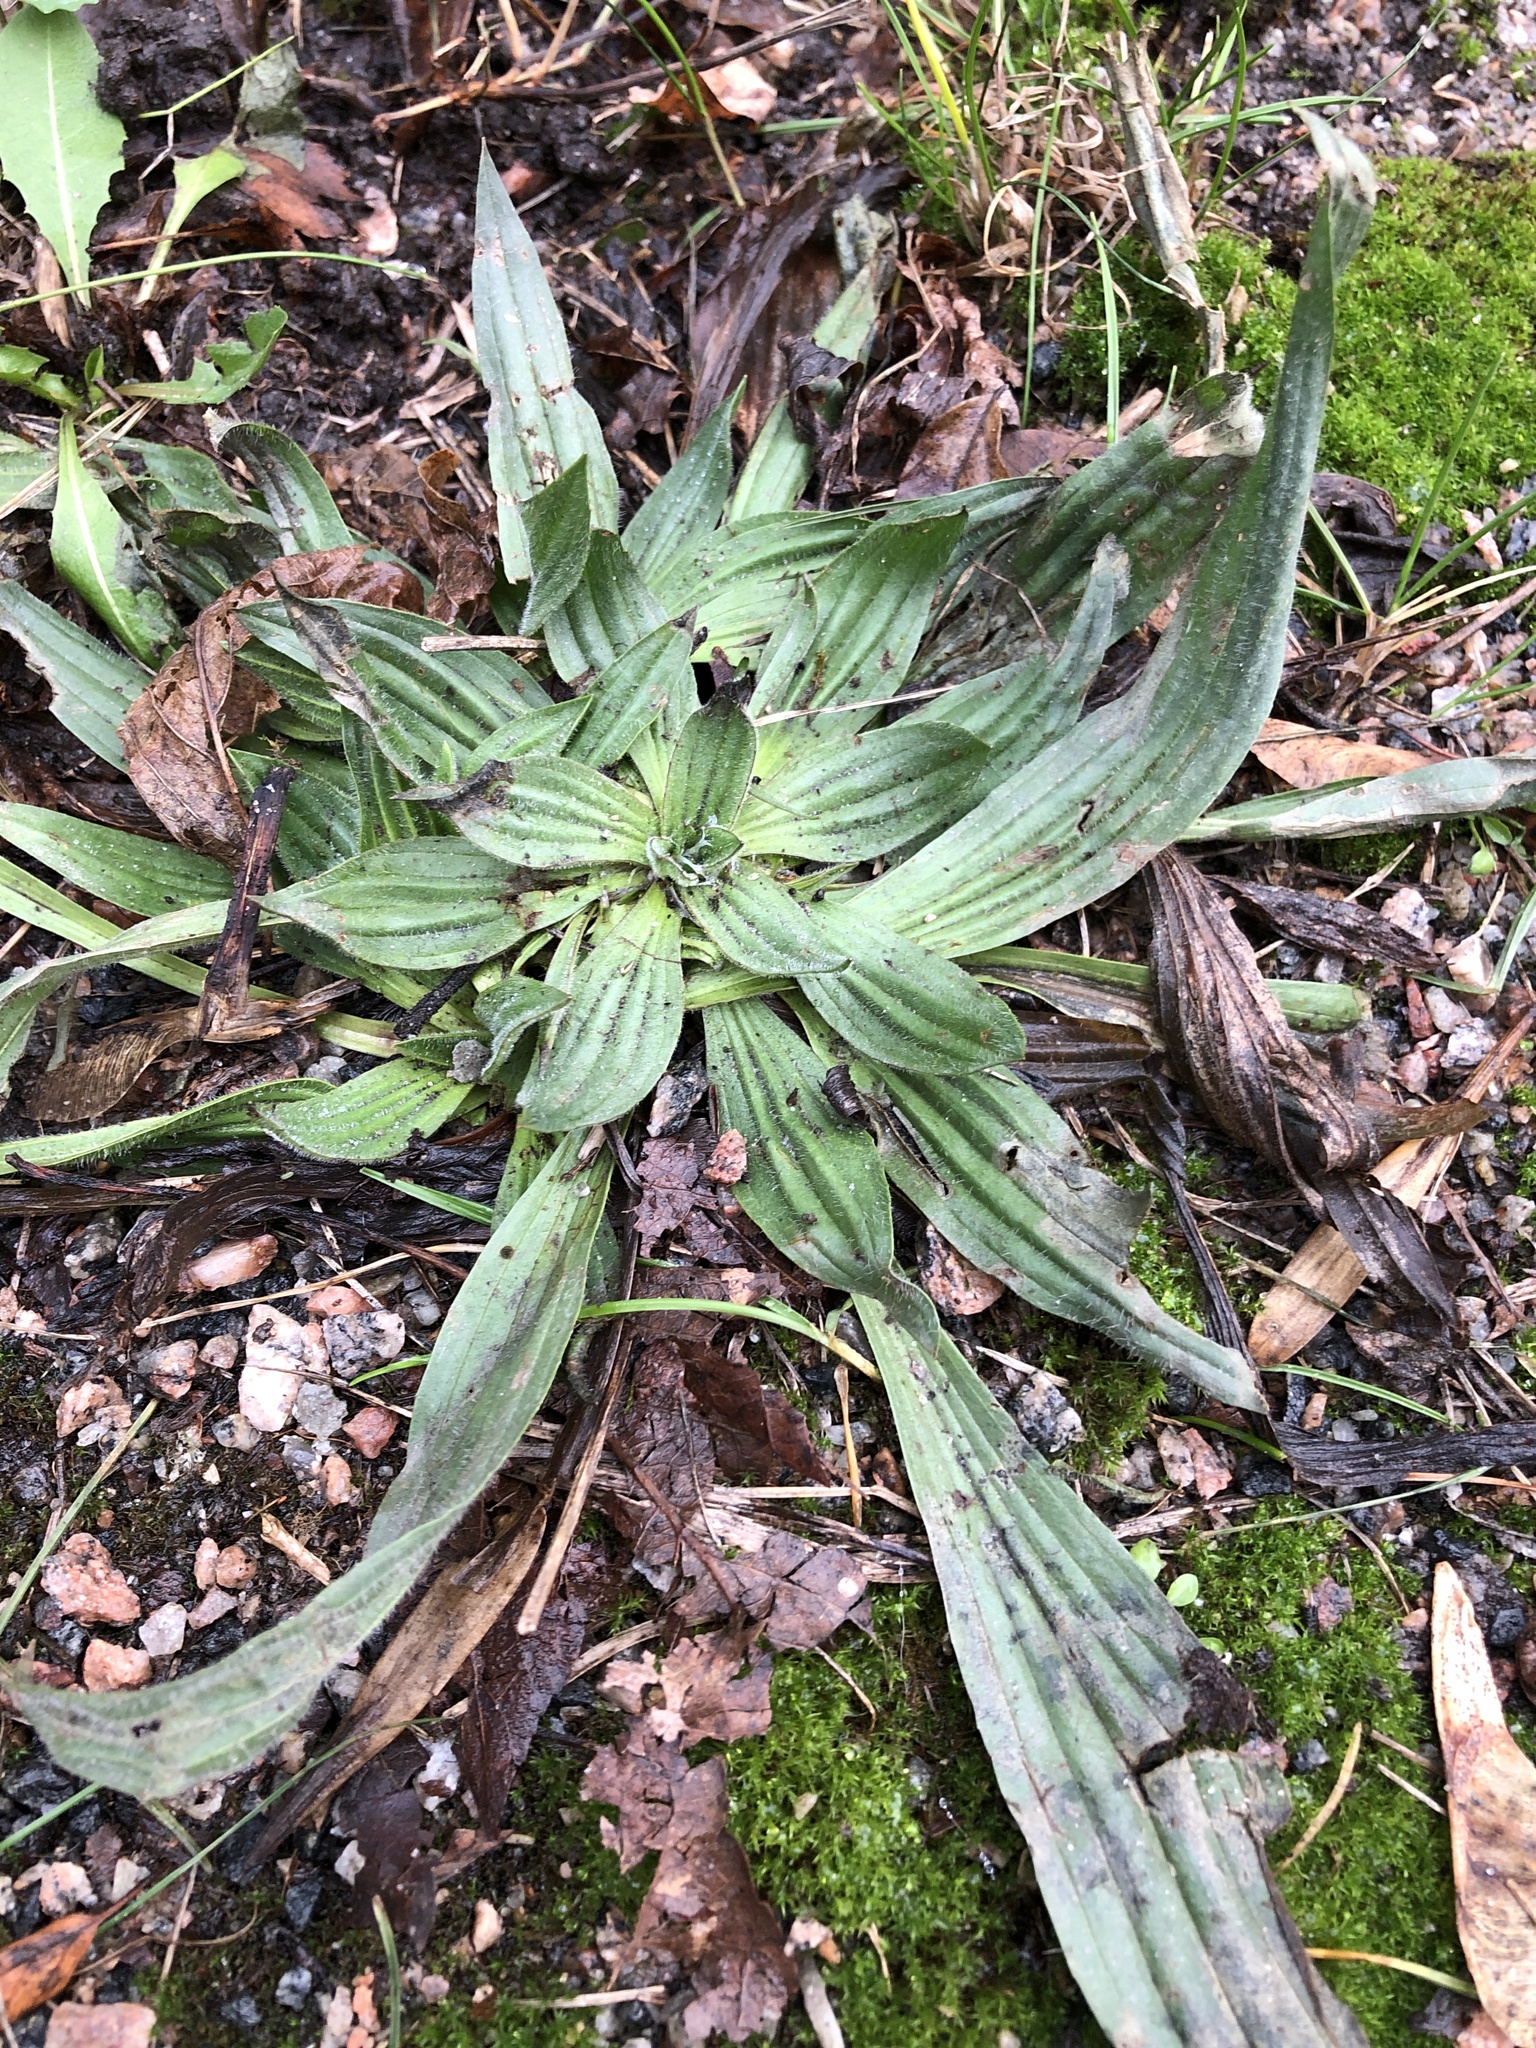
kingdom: Plantae
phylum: Tracheophyta
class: Magnoliopsida
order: Lamiales
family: Plantaginaceae
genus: Plantago
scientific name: Plantago lanceolata
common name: Ribwort plantain
